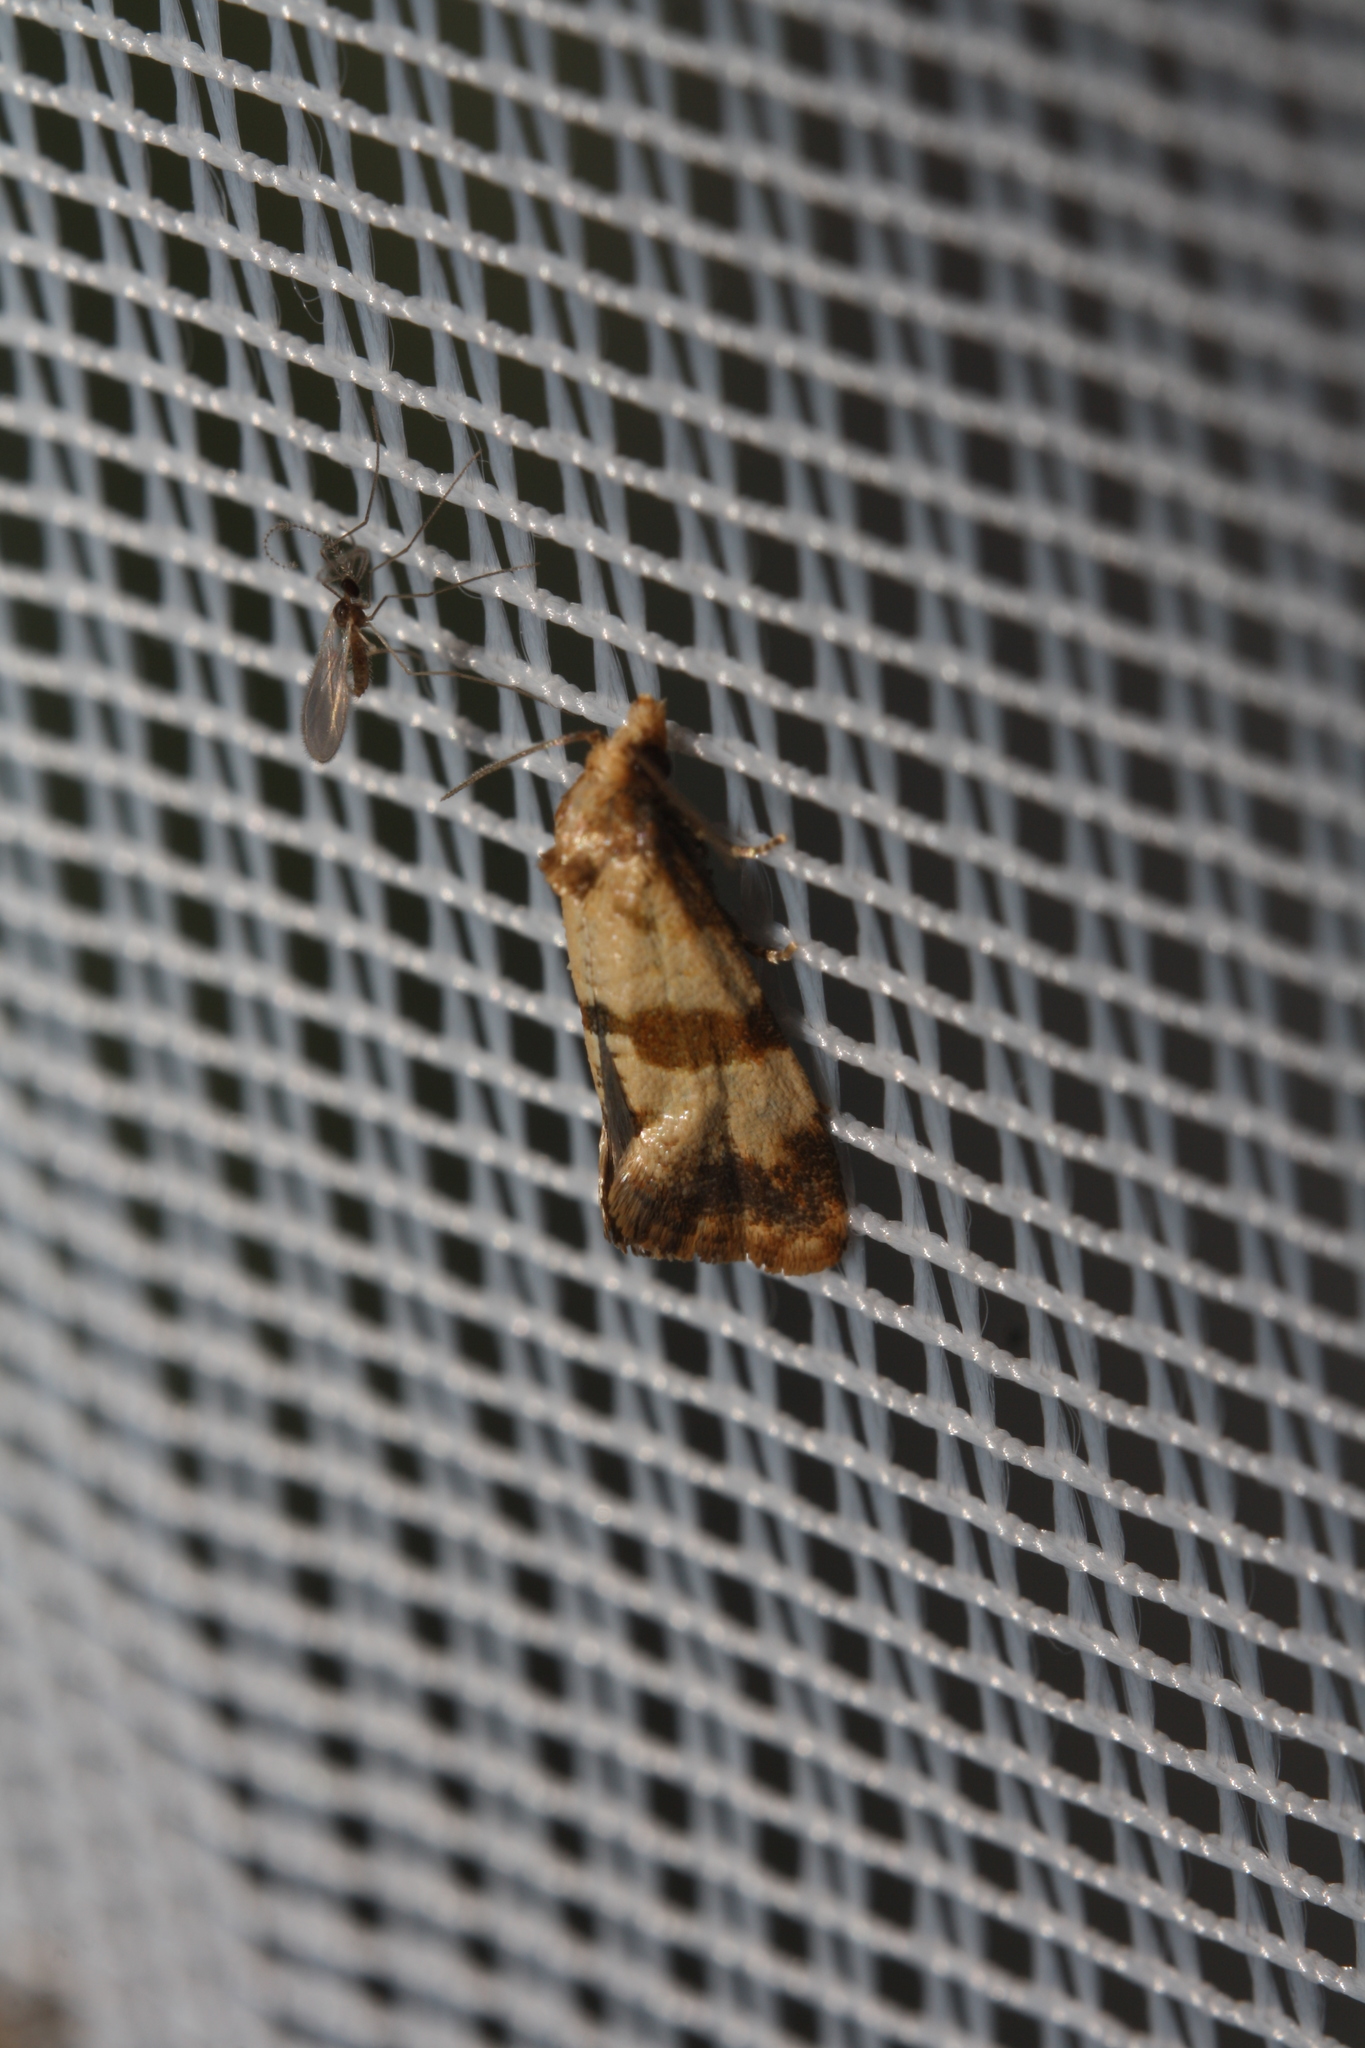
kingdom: Animalia
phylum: Arthropoda
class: Insecta
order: Lepidoptera
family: Tortricidae
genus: Phalonidia
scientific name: Phalonidia contractana
